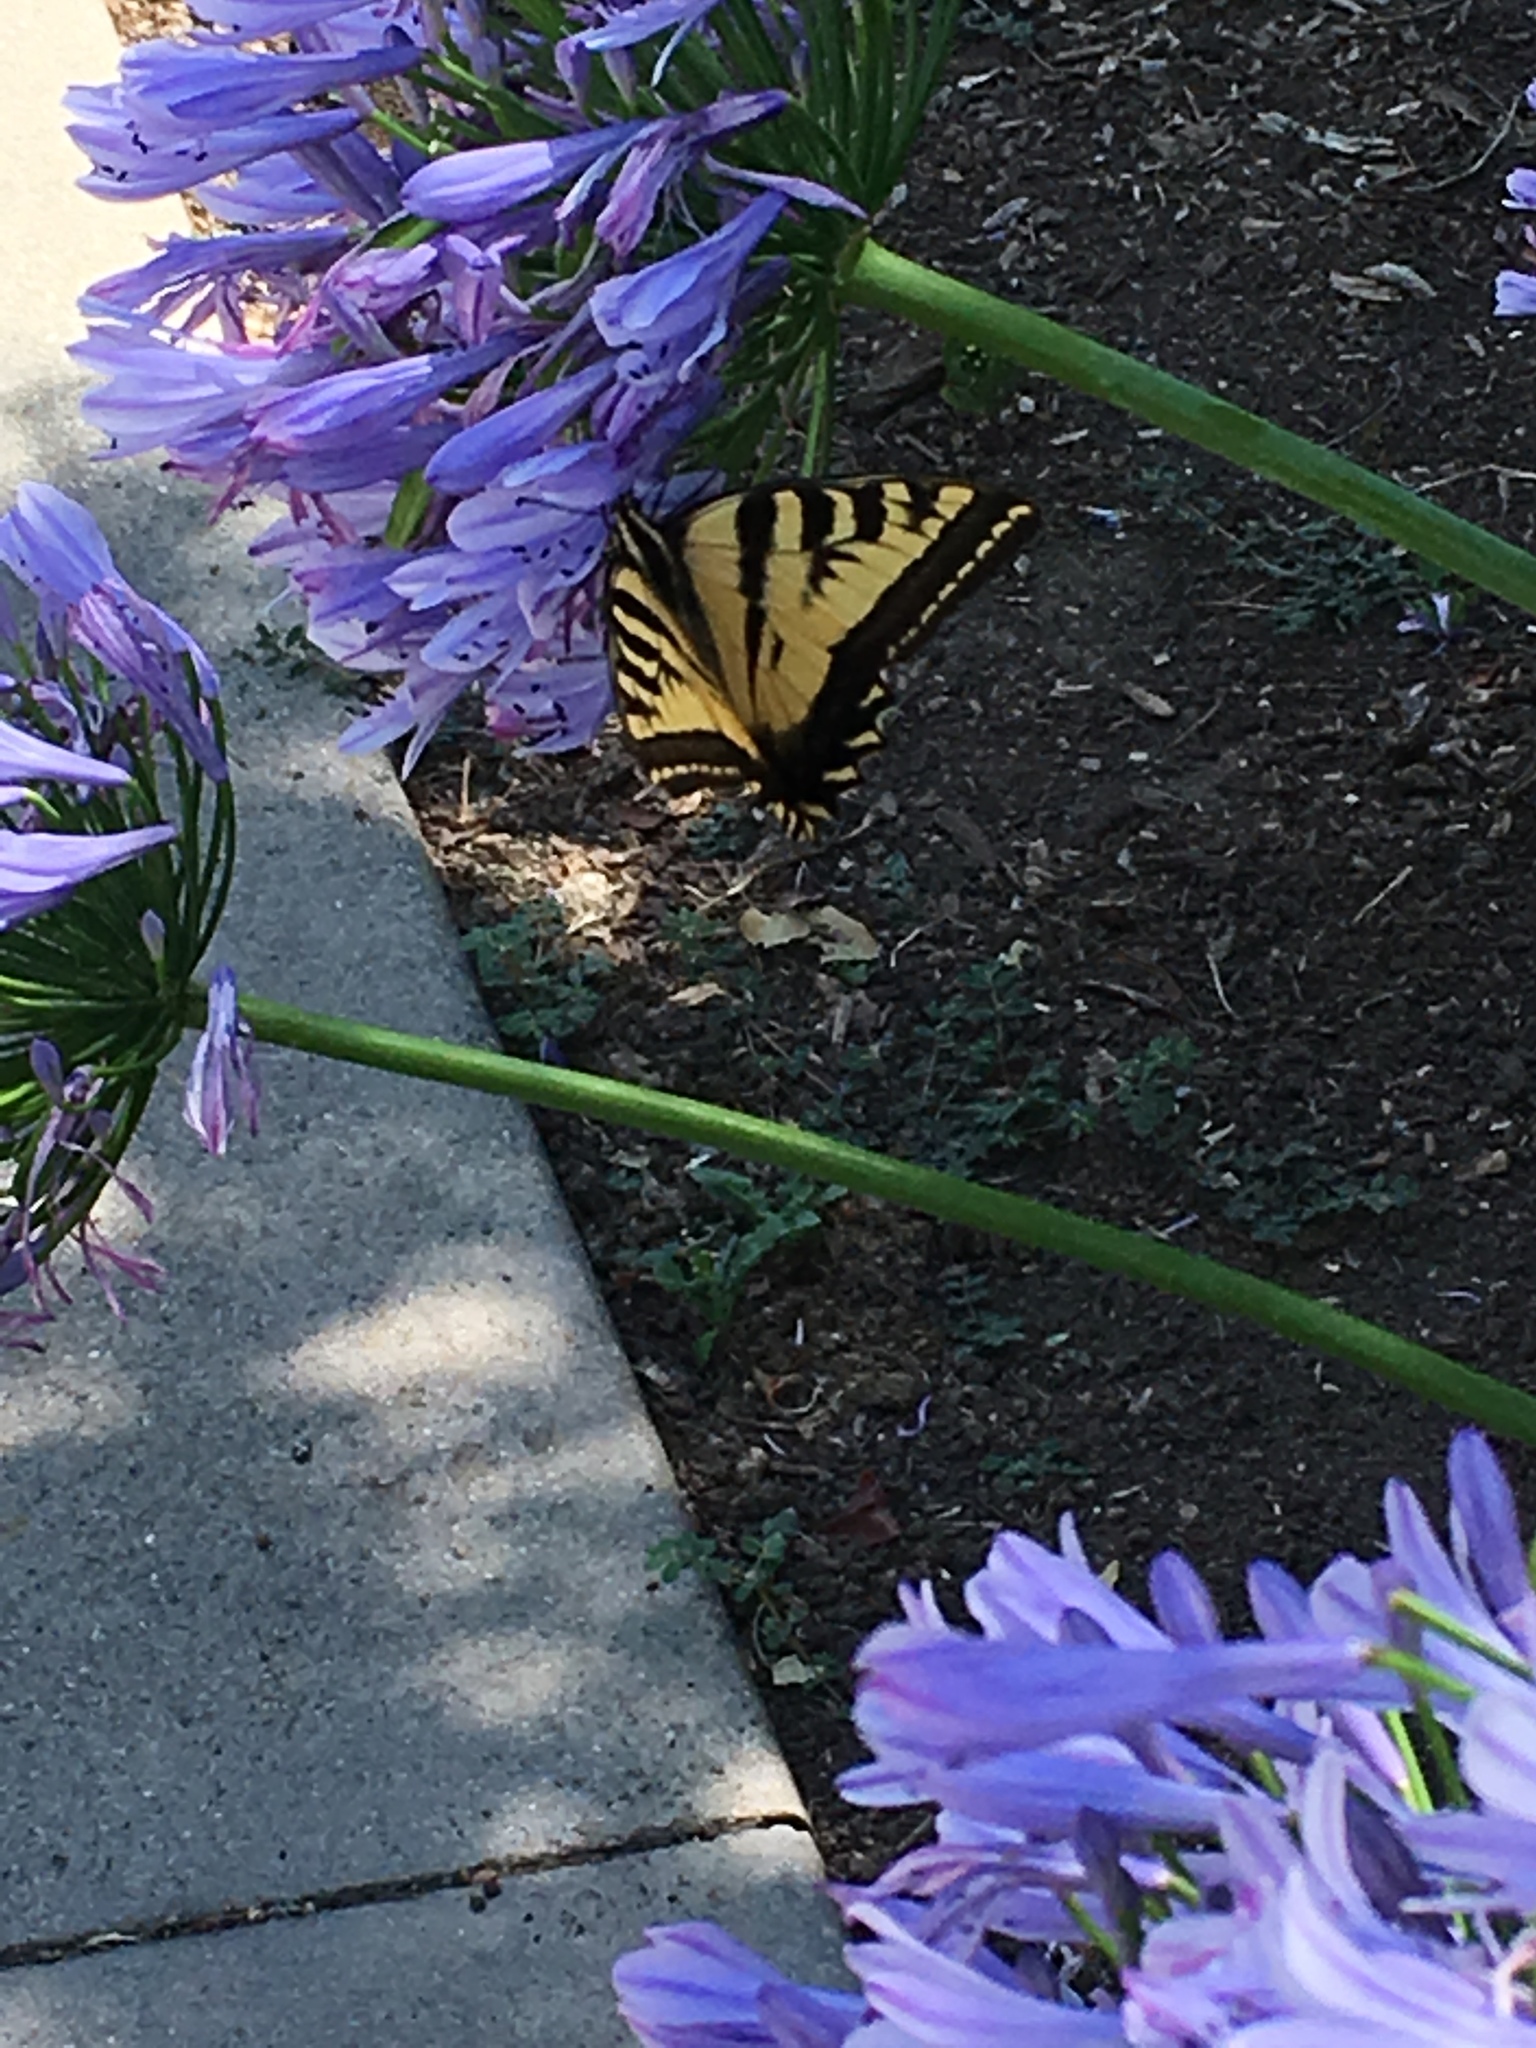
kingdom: Animalia
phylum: Arthropoda
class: Insecta
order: Lepidoptera
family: Papilionidae
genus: Papilio
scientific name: Papilio rutulus
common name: Western tiger swallowtail
